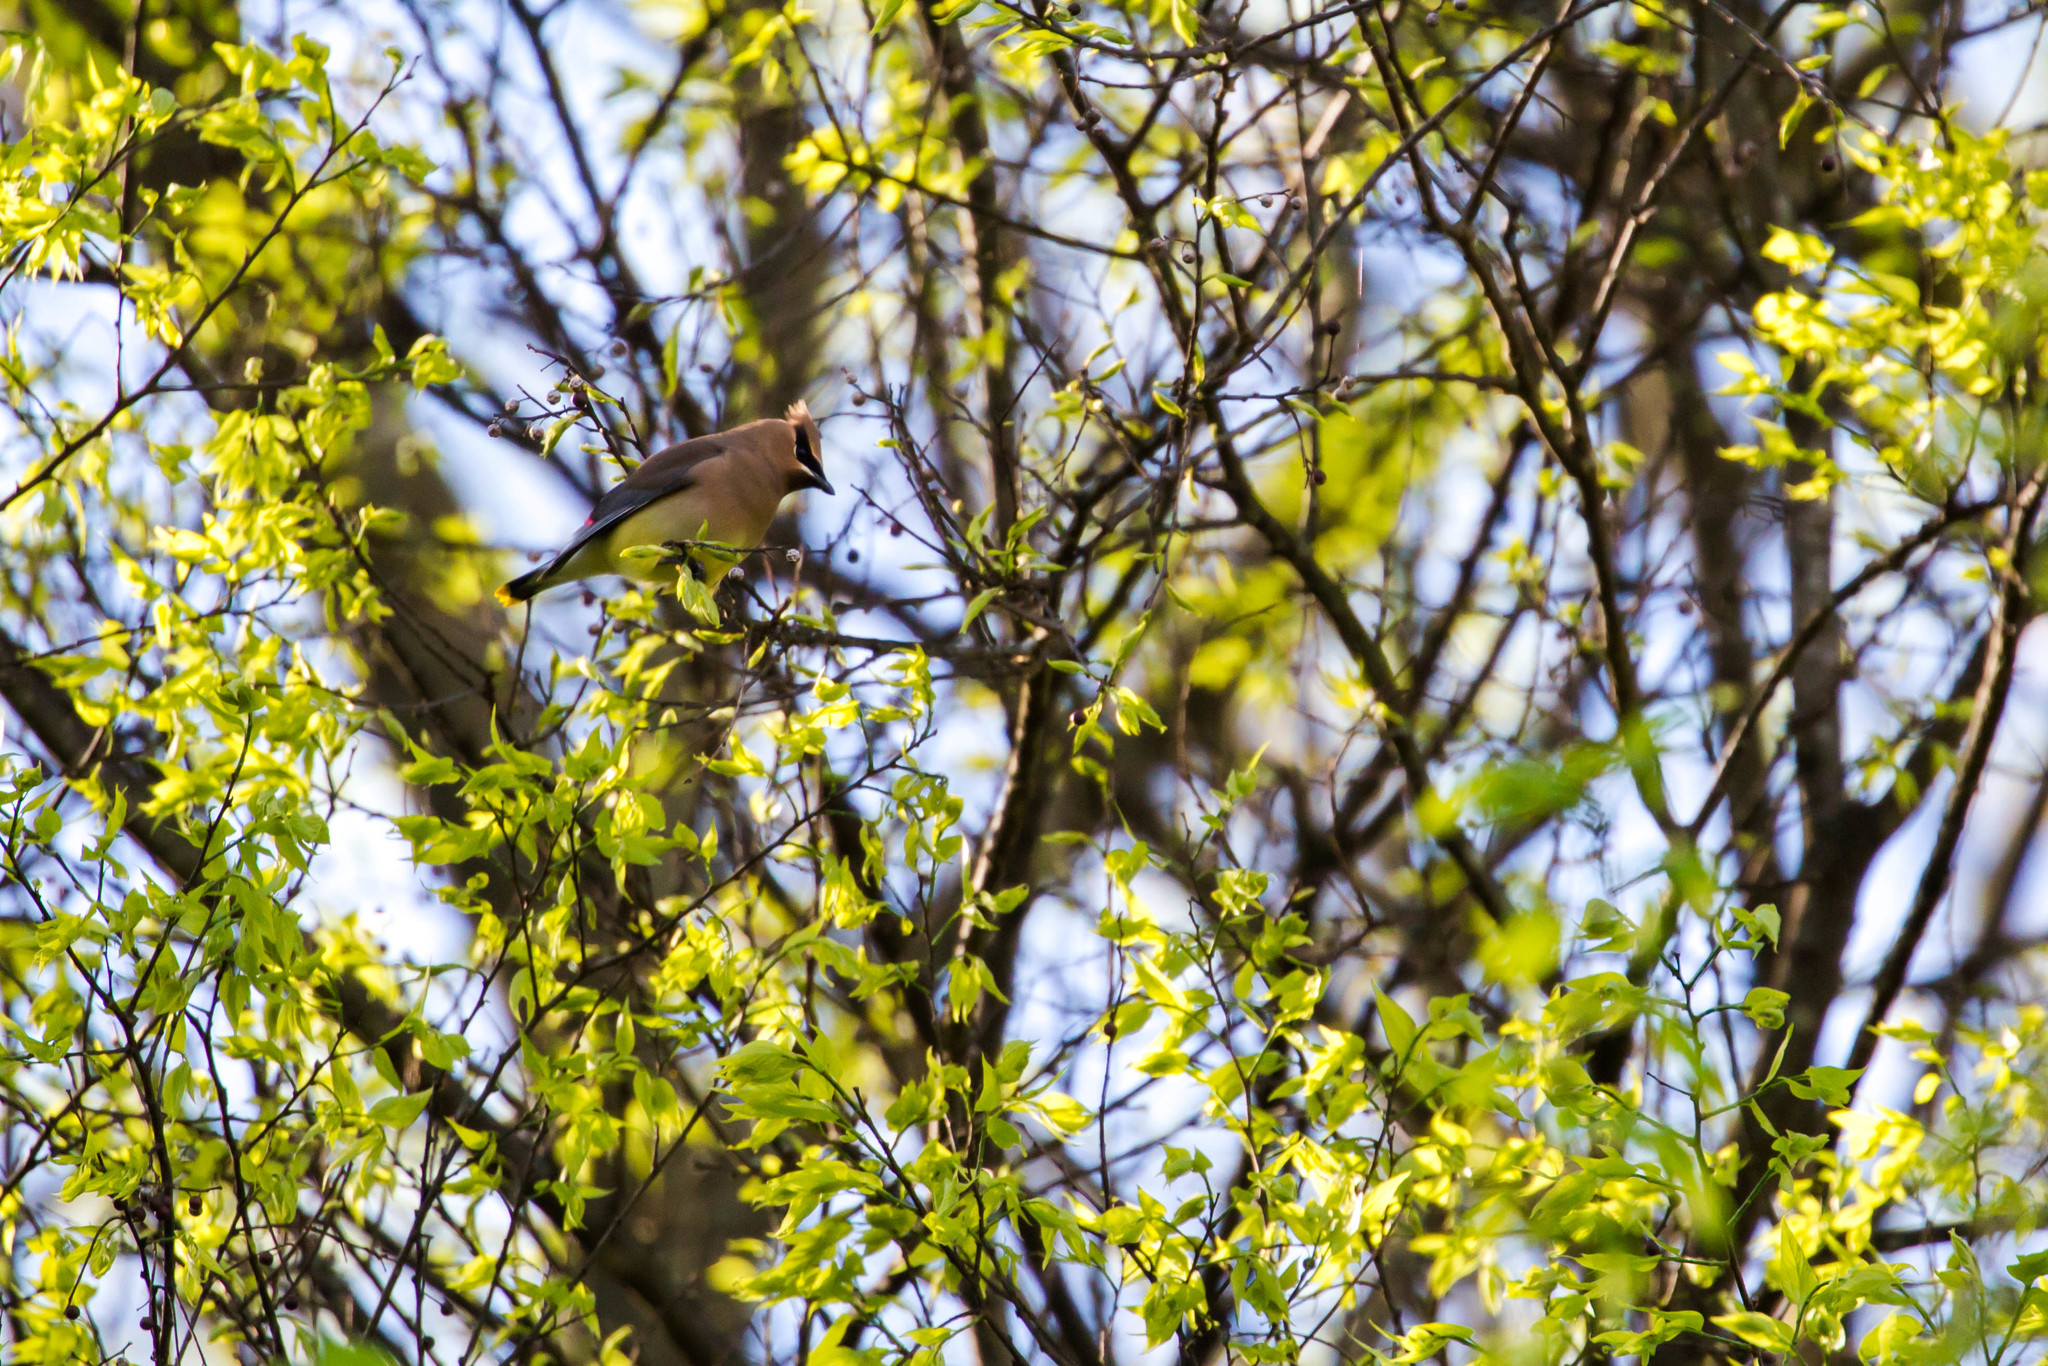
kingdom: Animalia
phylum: Chordata
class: Aves
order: Passeriformes
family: Bombycillidae
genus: Bombycilla
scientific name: Bombycilla cedrorum
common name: Cedar waxwing
